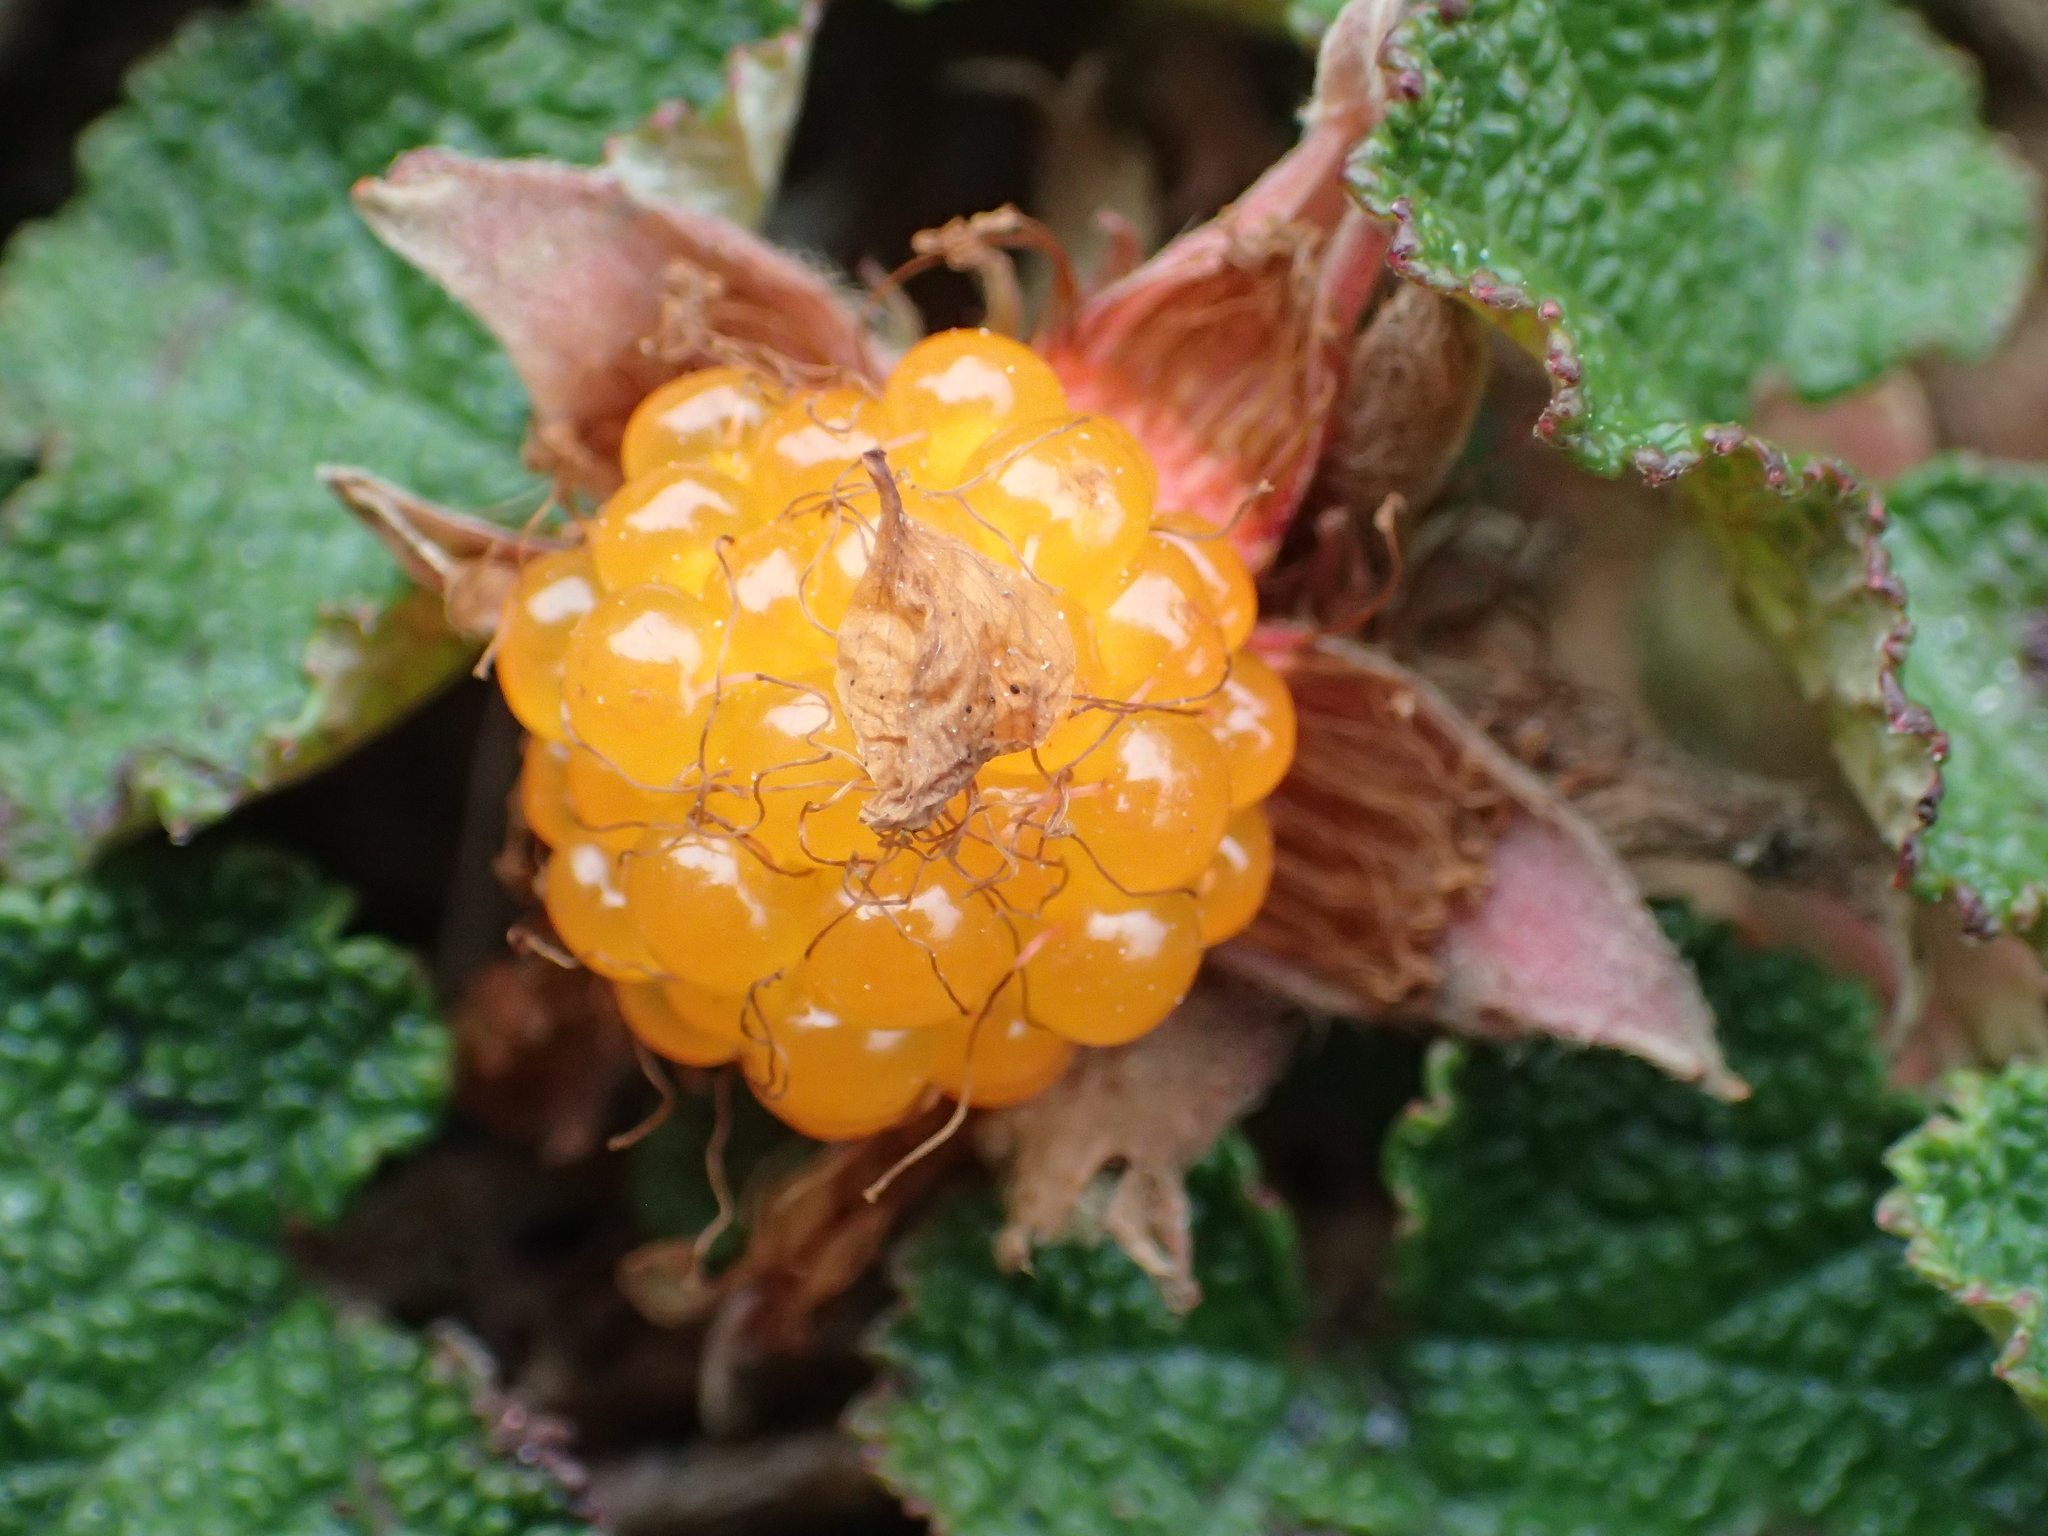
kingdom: Plantae
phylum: Tracheophyta
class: Magnoliopsida
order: Rosales
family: Rosaceae
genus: Rubus
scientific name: Rubus rolfei
